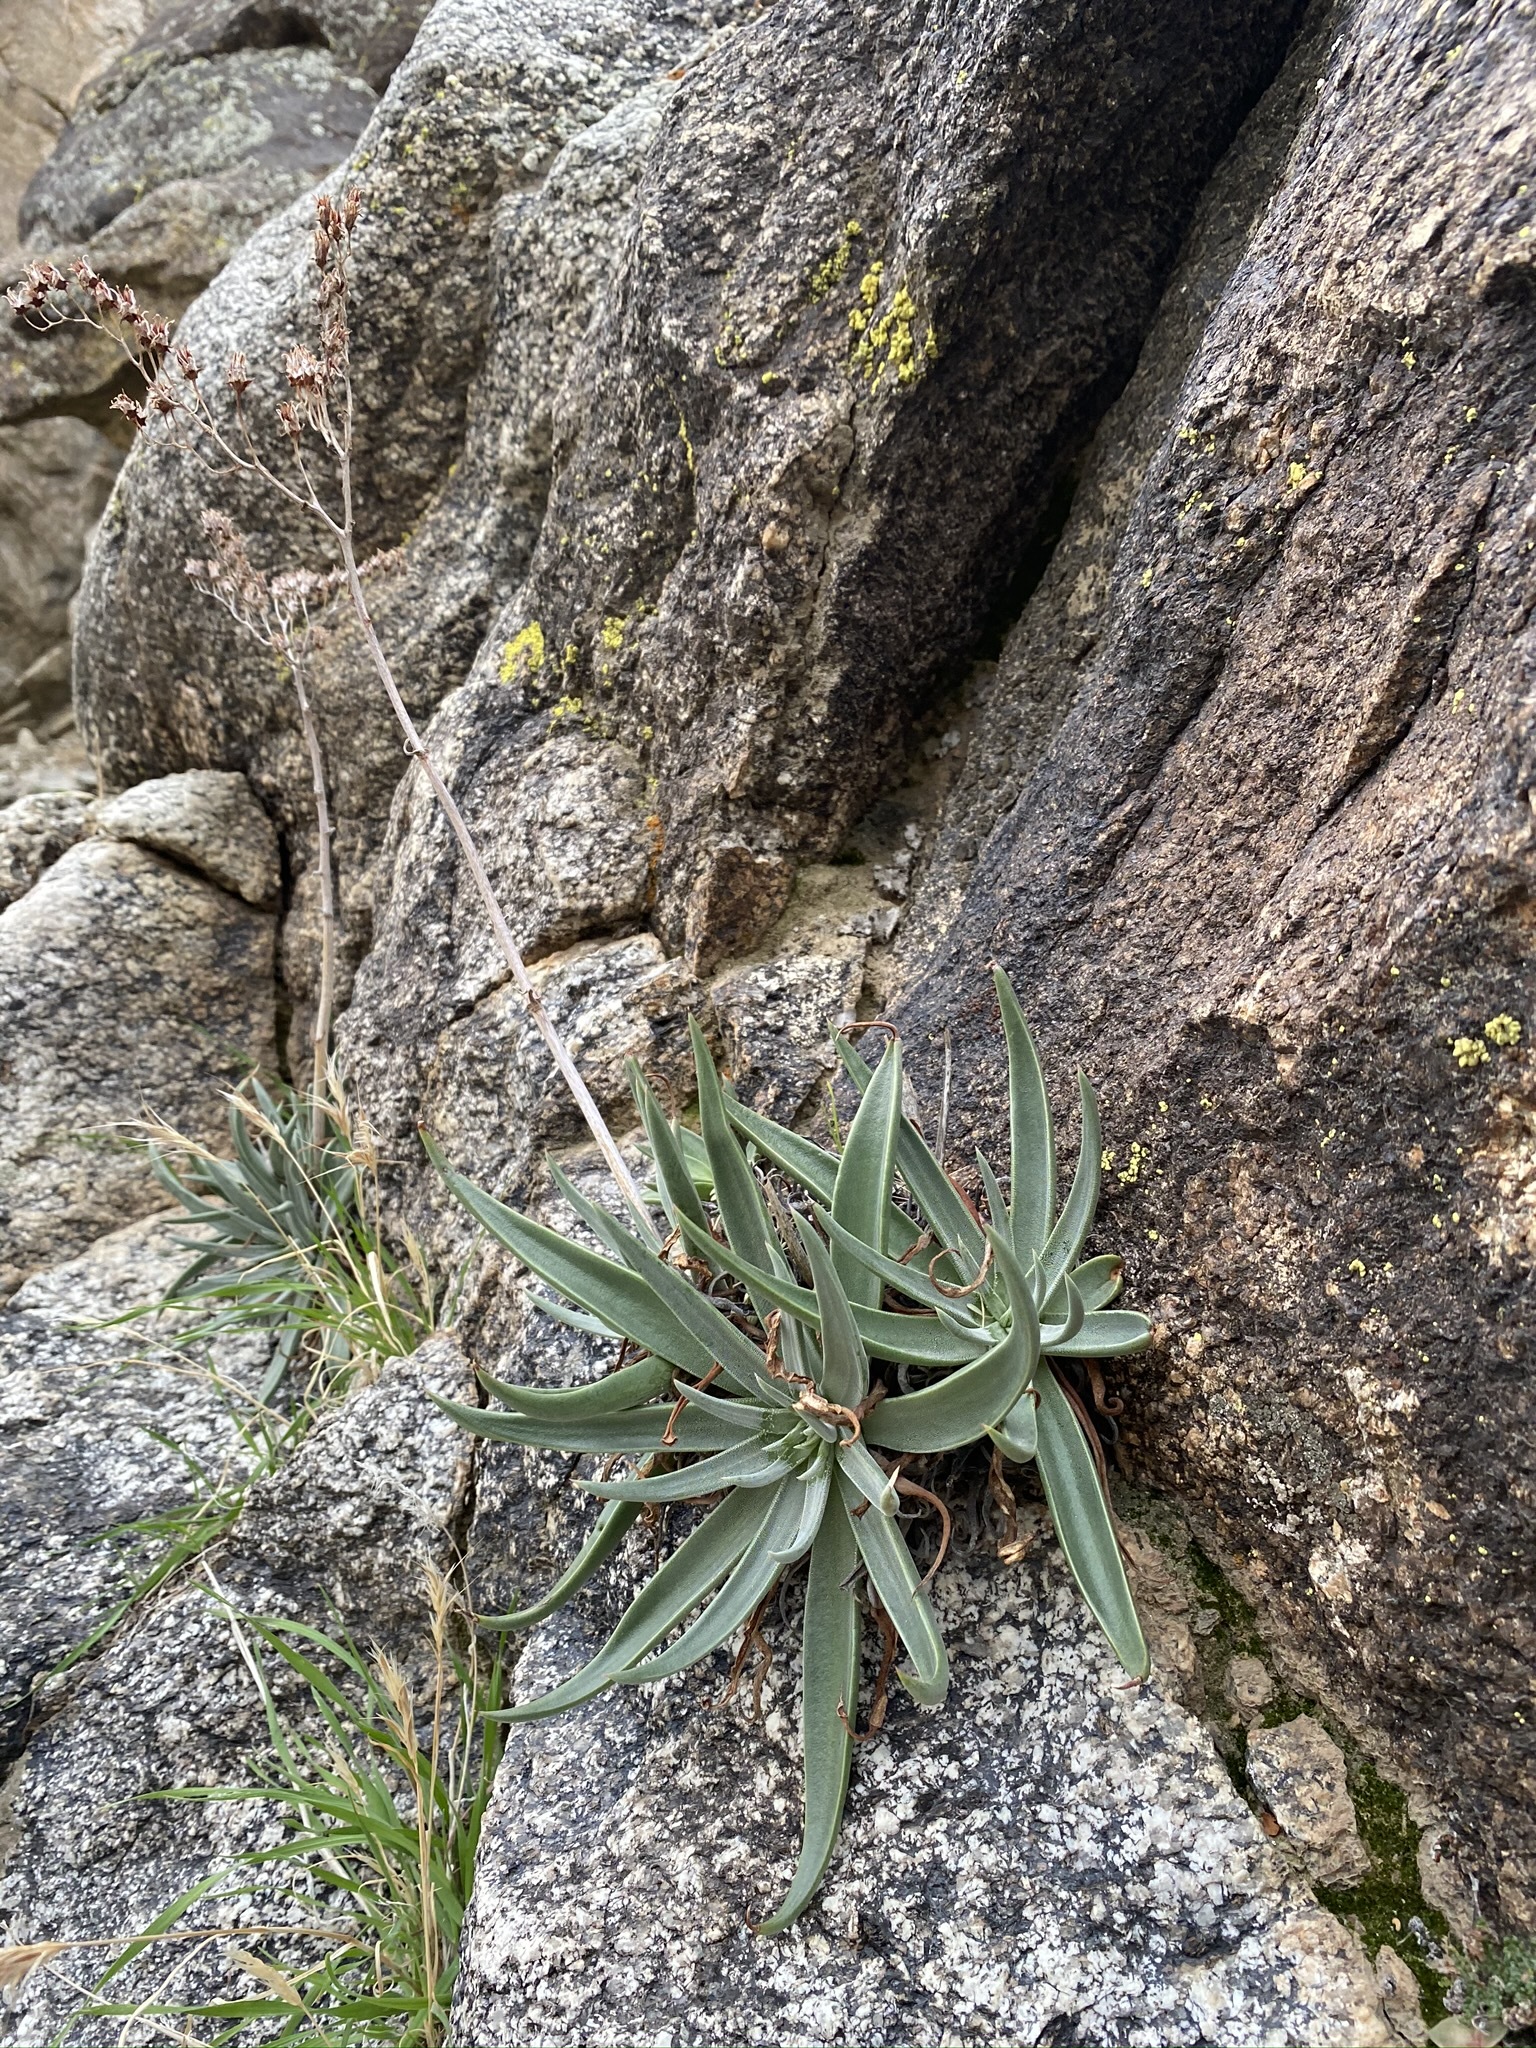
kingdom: Plantae
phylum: Tracheophyta
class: Magnoliopsida
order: Saxifragales
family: Crassulaceae
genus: Dudleya
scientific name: Dudleya saxosa
